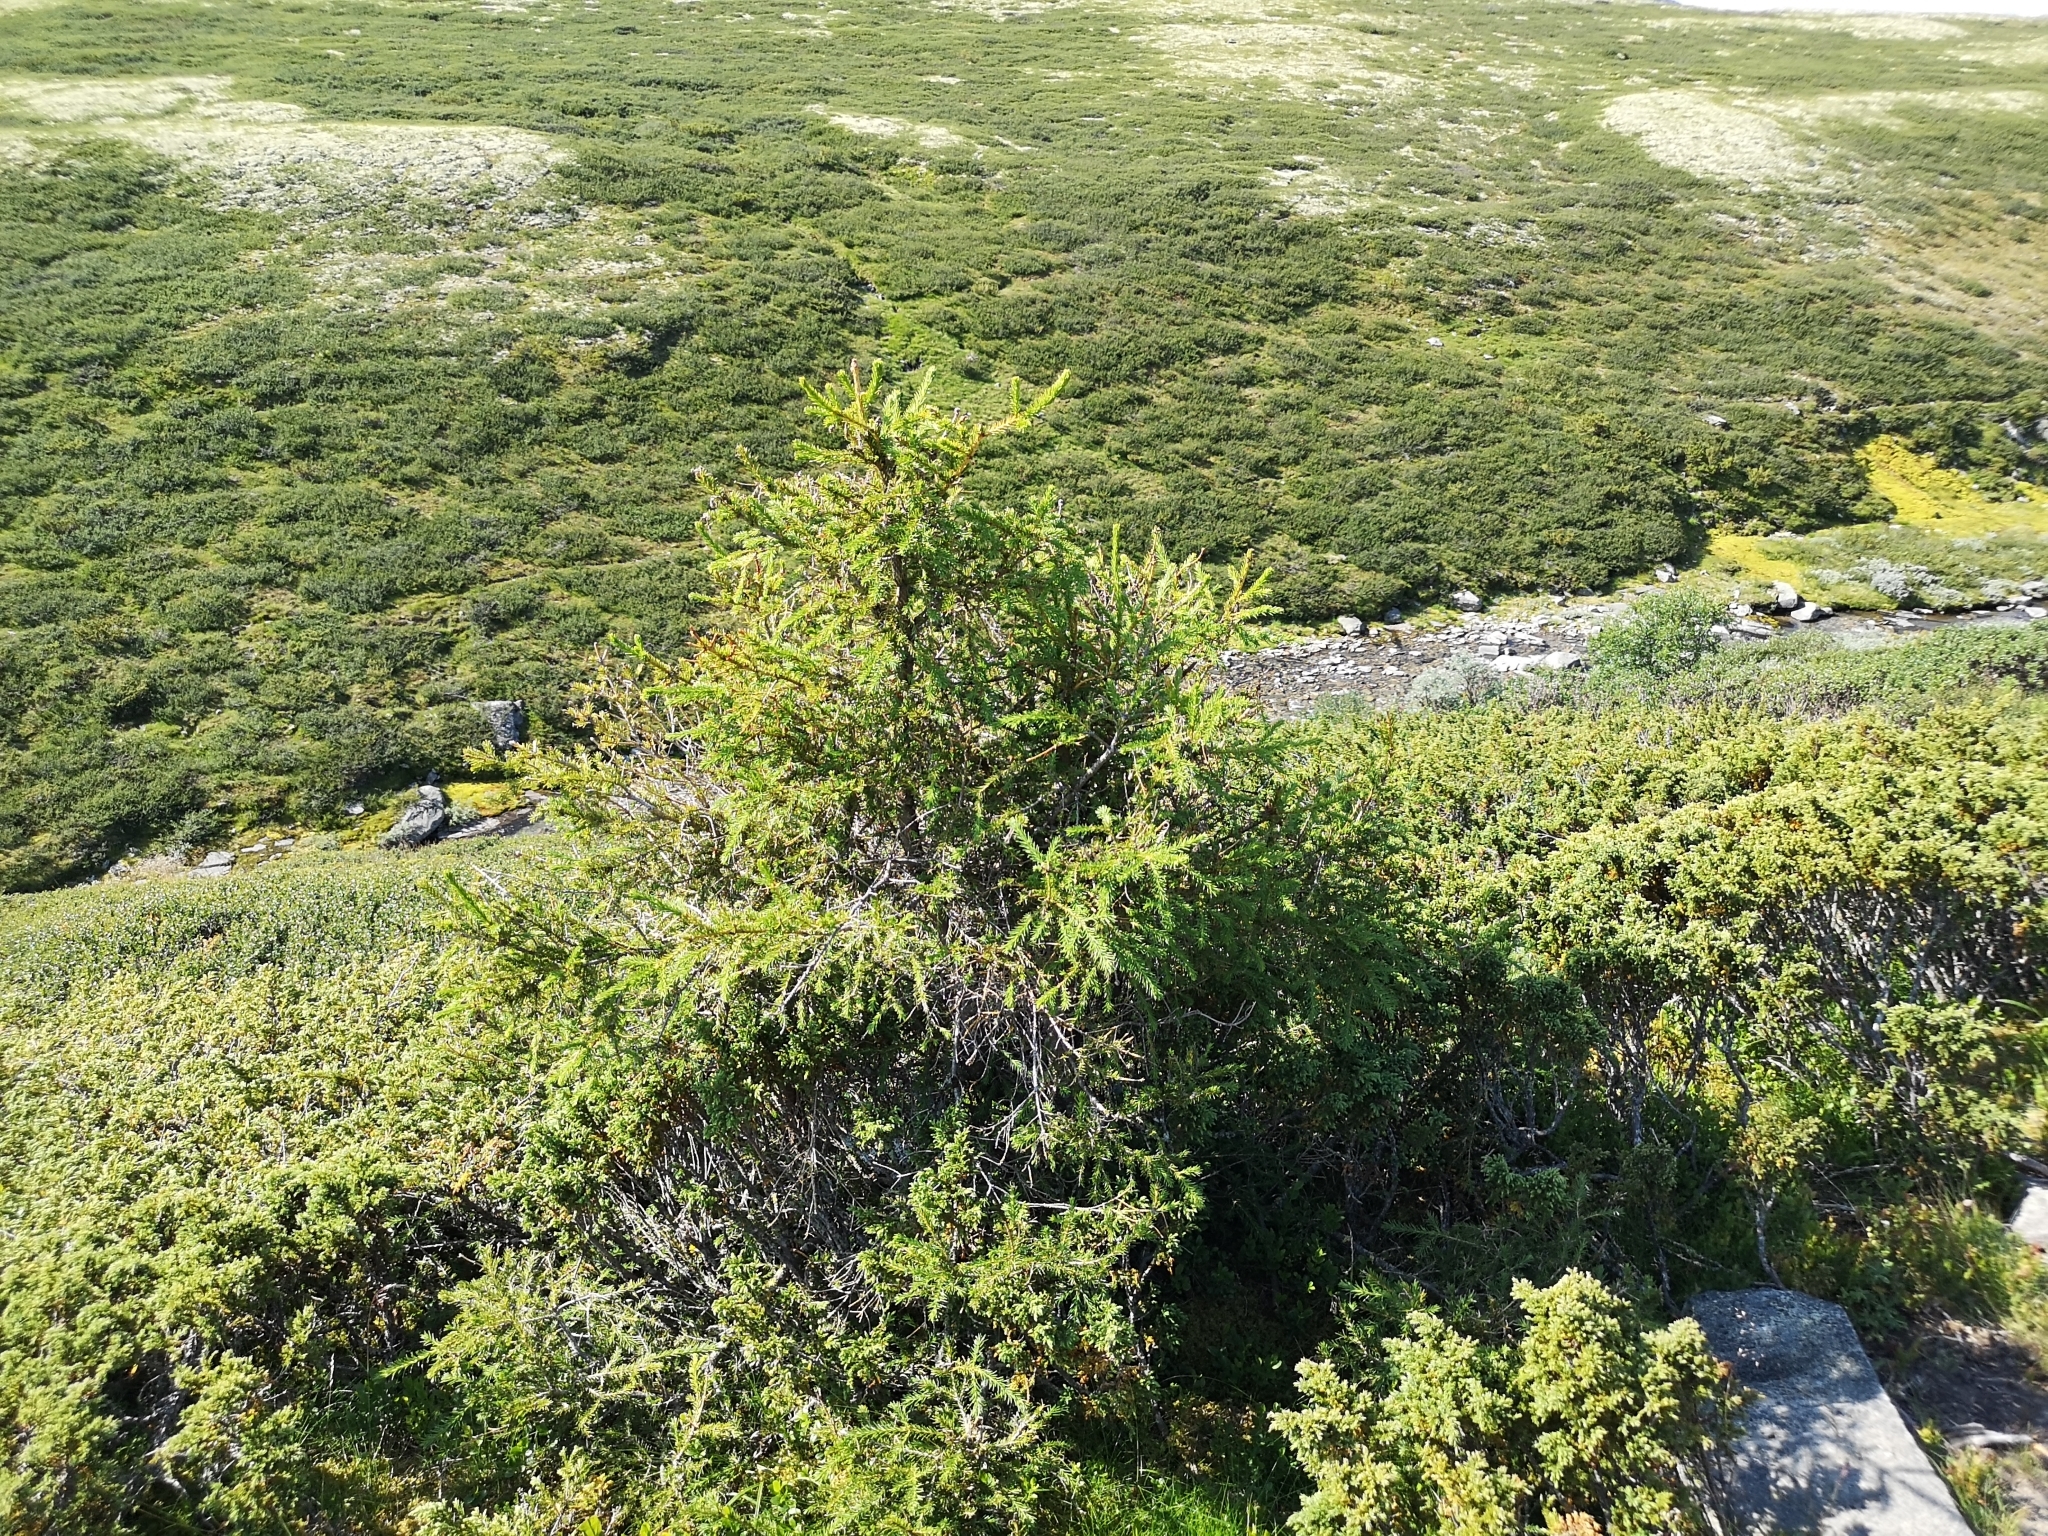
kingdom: Plantae
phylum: Tracheophyta
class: Pinopsida
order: Pinales
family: Pinaceae
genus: Picea
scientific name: Picea abies
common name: Norway spruce
